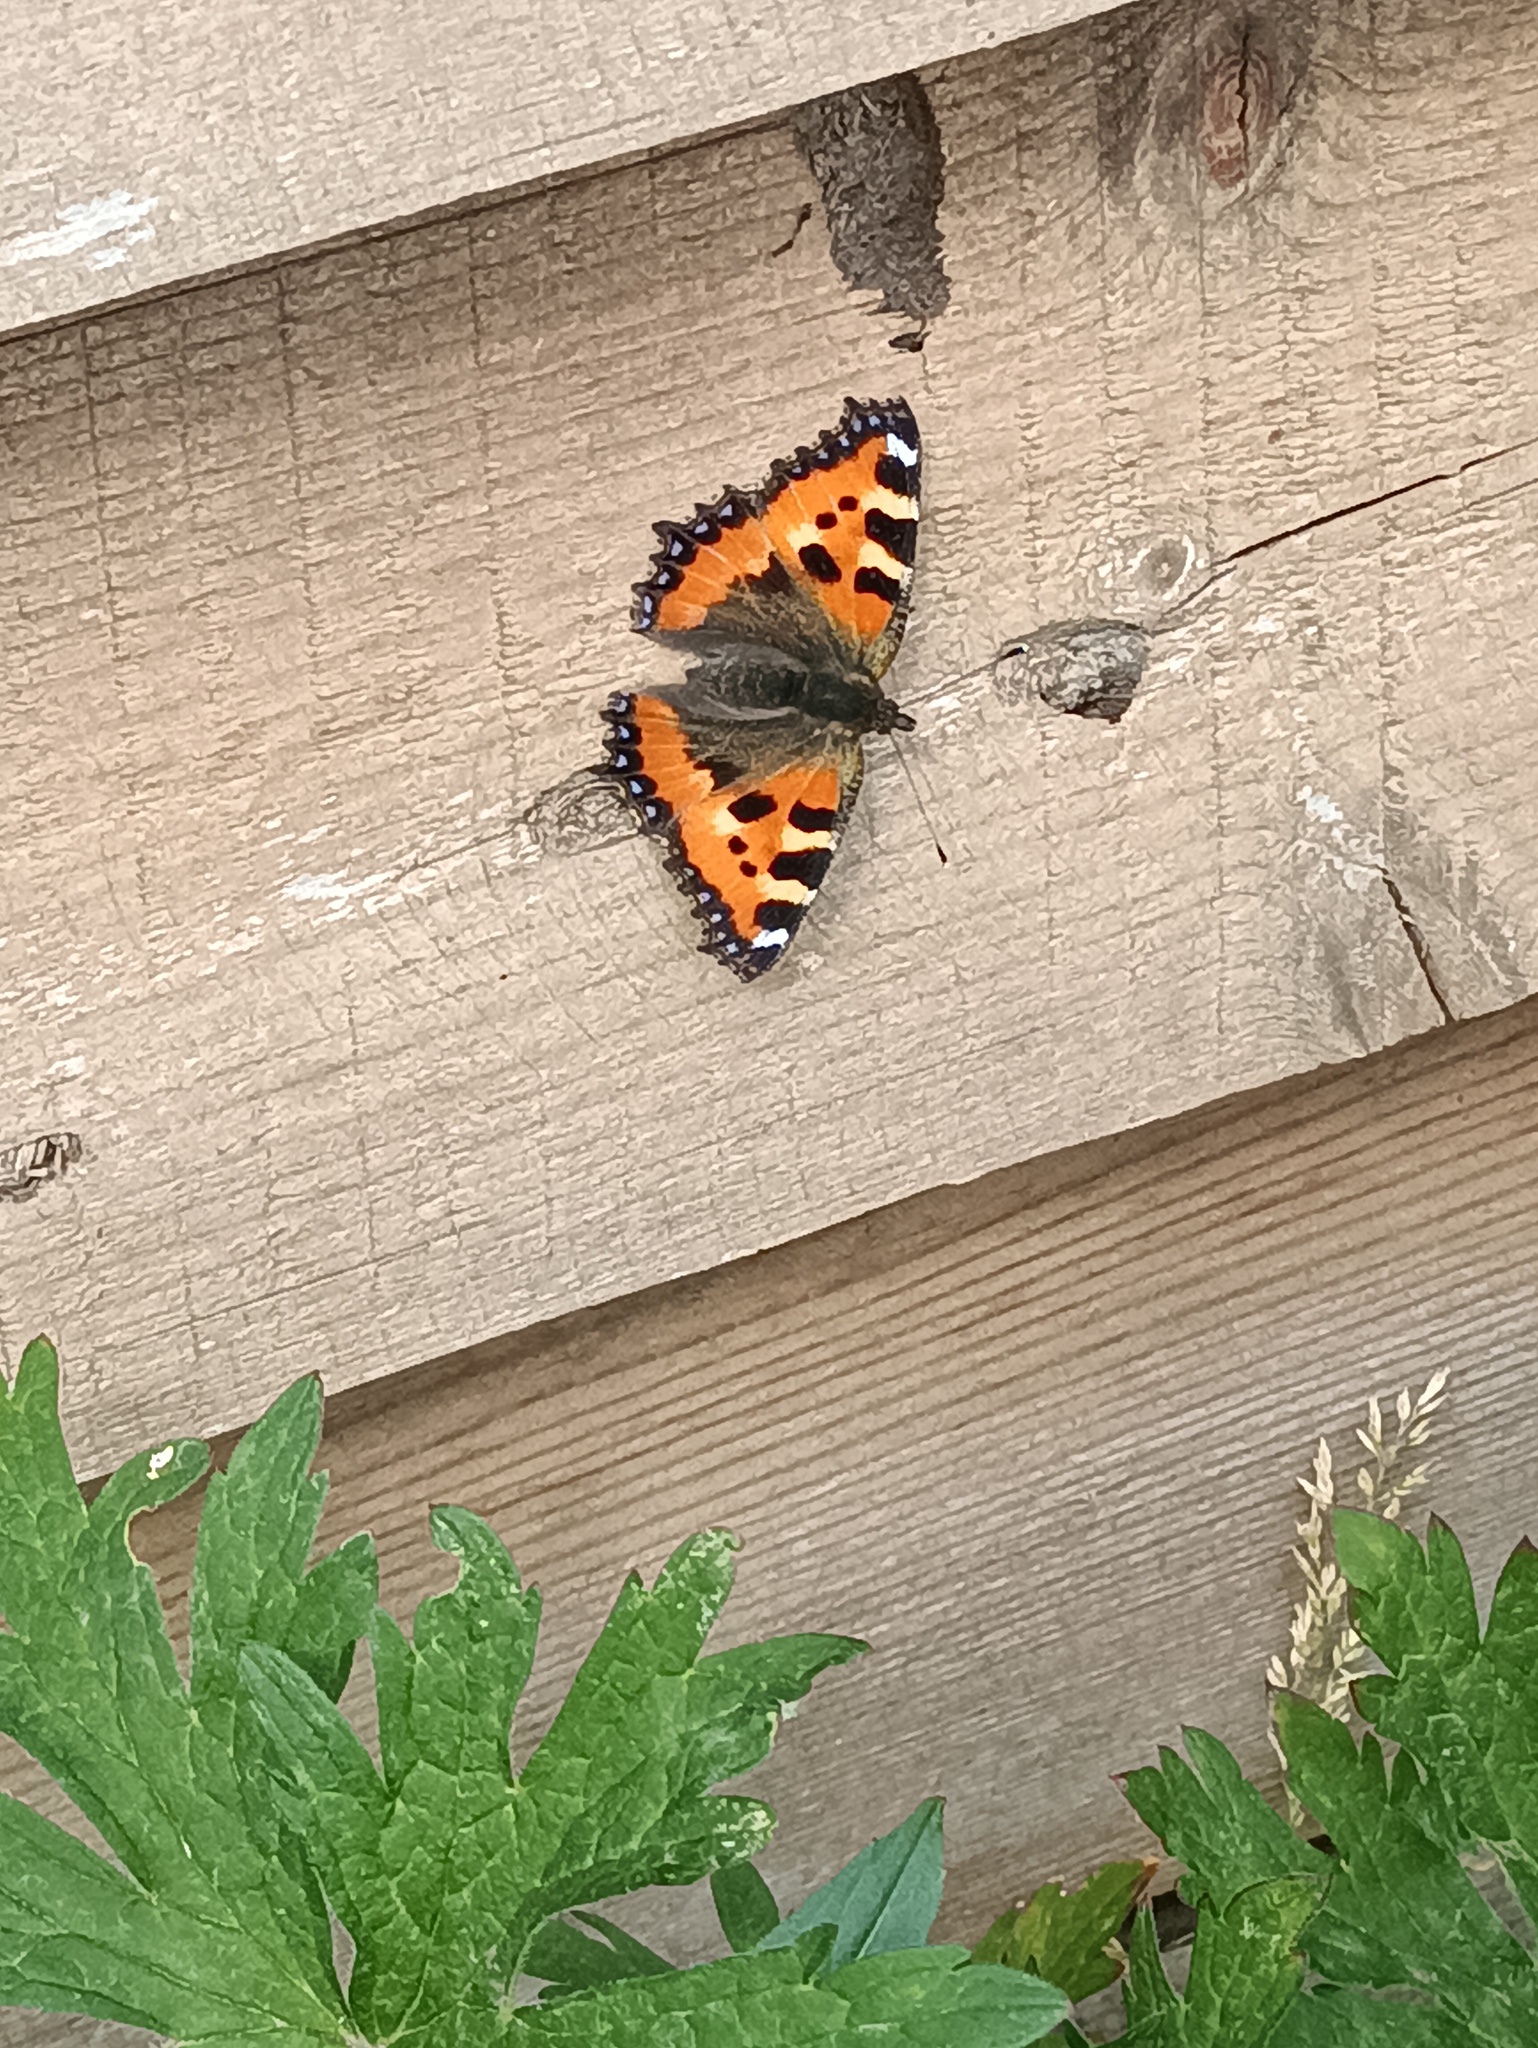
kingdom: Animalia
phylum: Arthropoda
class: Insecta
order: Lepidoptera
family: Nymphalidae
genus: Aglais
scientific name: Aglais urticae
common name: Small tortoiseshell
